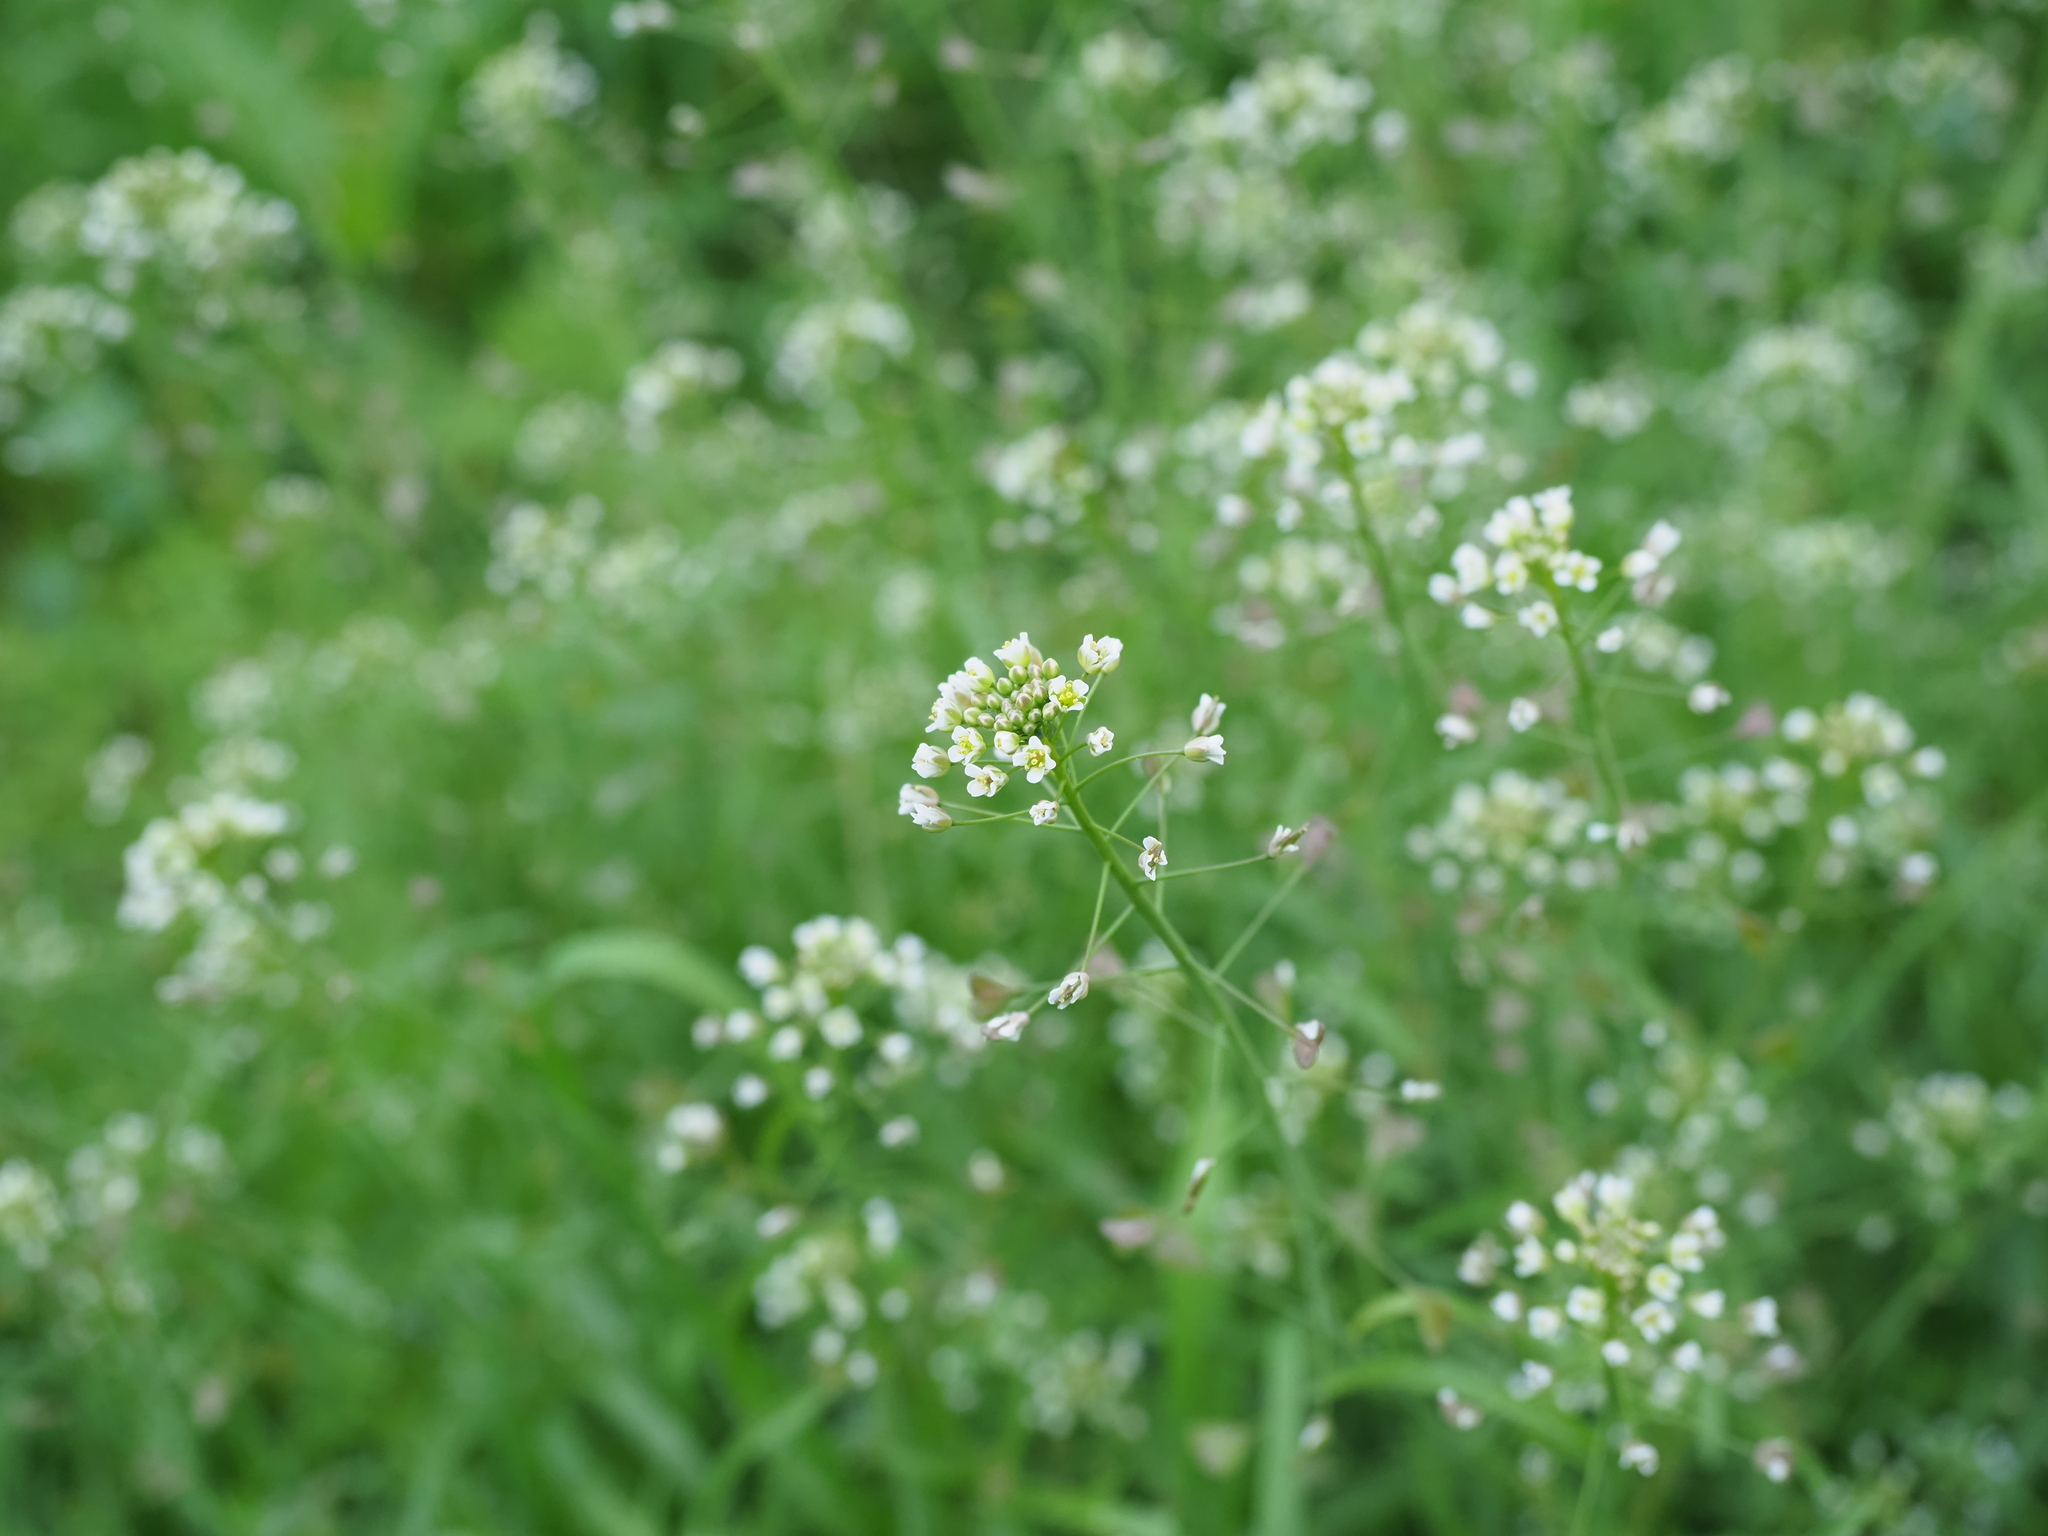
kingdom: Plantae
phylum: Tracheophyta
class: Magnoliopsida
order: Brassicales
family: Brassicaceae
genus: Capsella
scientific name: Capsella bursa-pastoris
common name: Shepherd's purse
